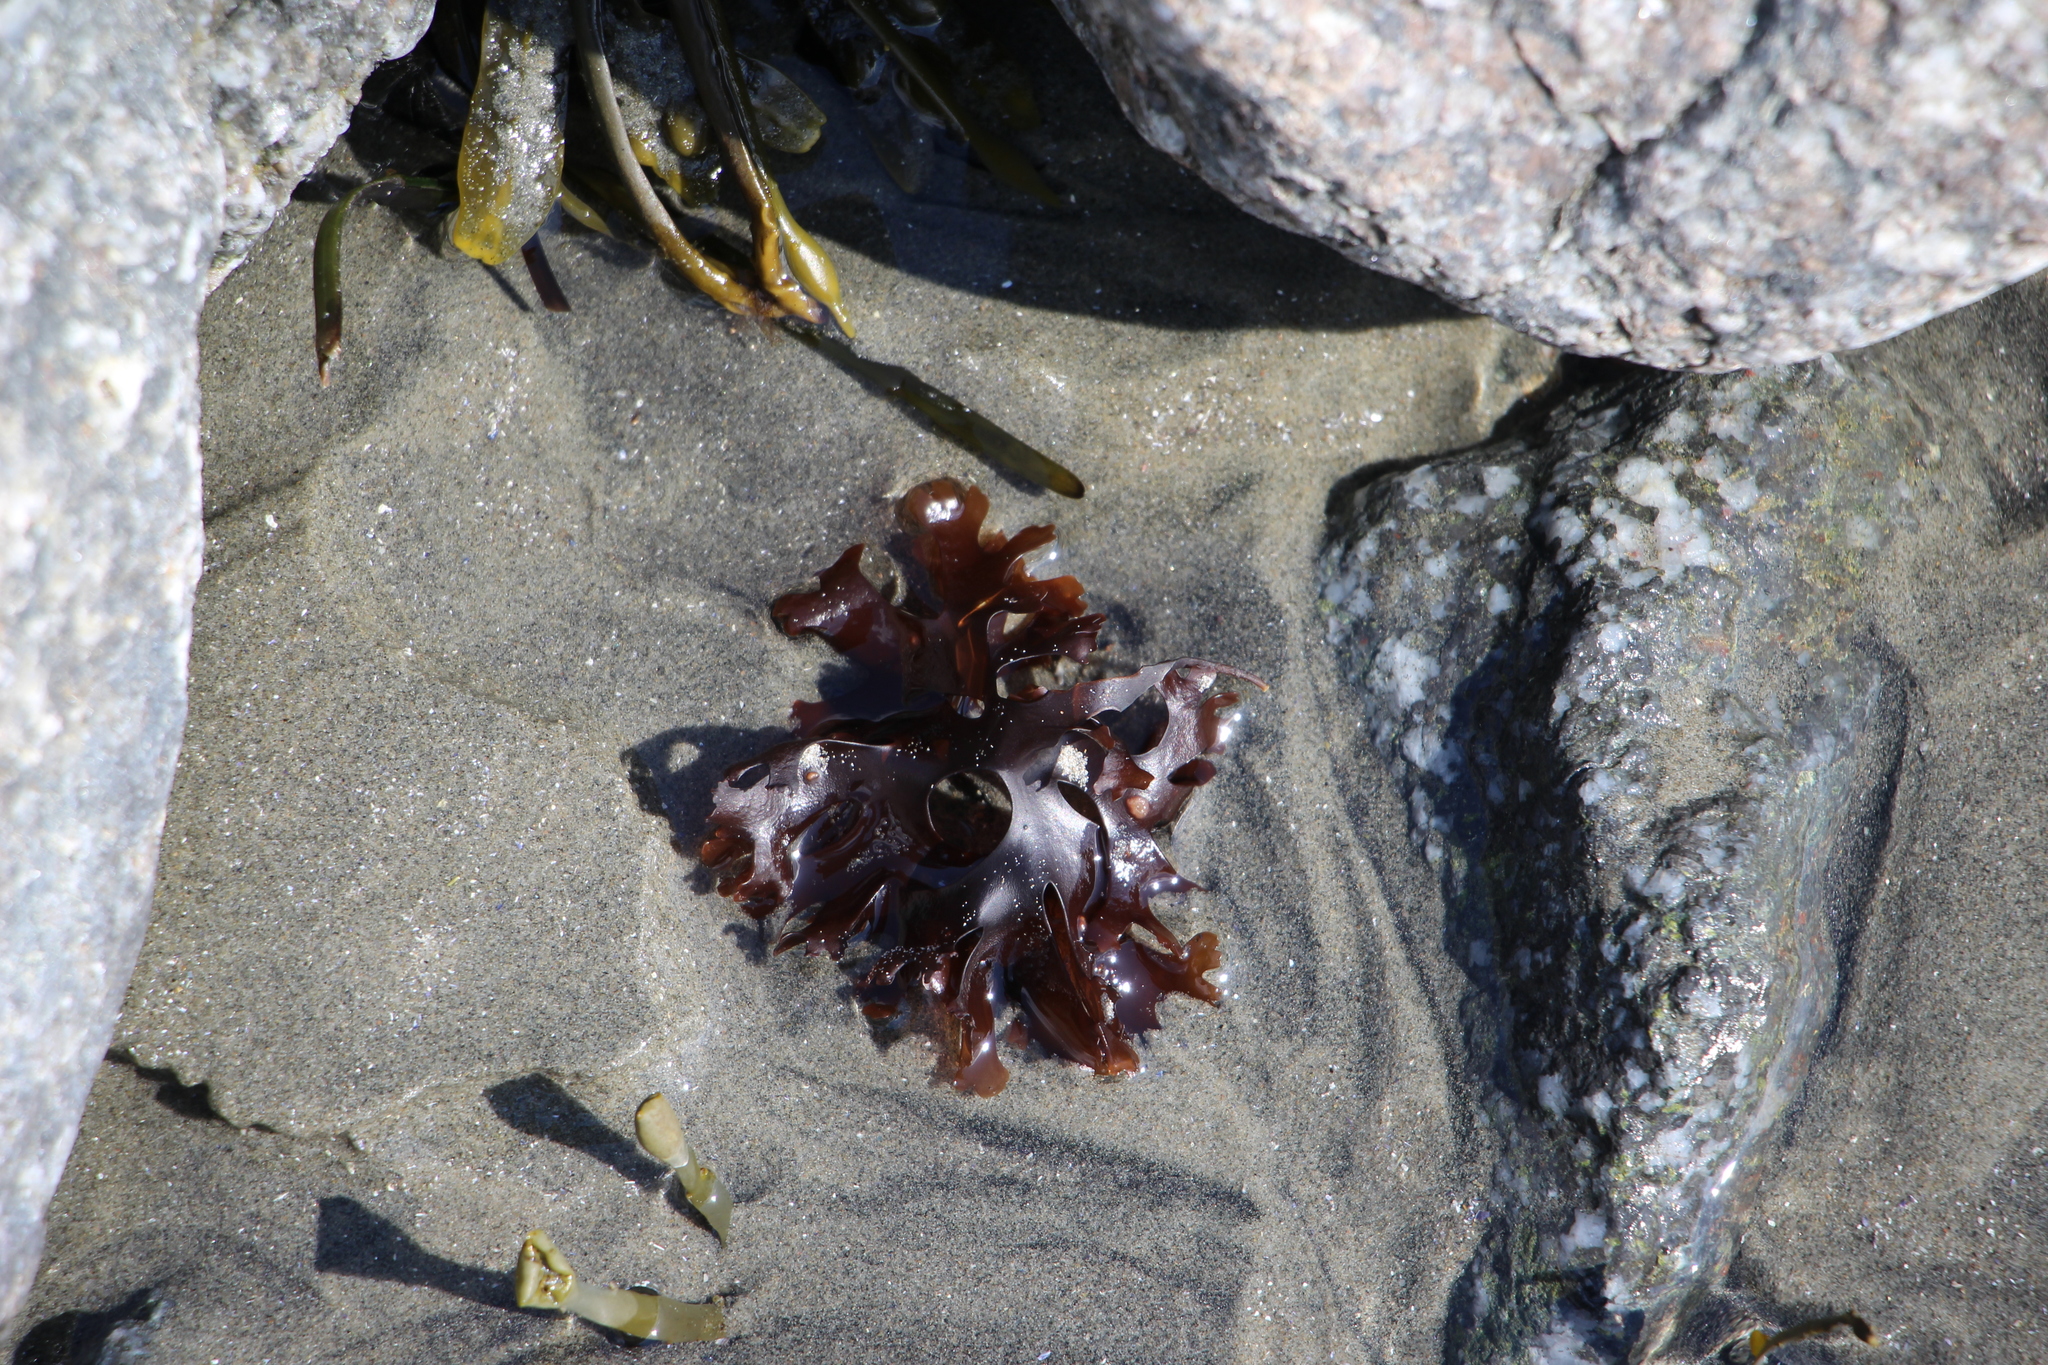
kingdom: Plantae
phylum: Rhodophyta
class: Florideophyceae
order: Gigartinales
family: Gigartinaceae
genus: Chondrus
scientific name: Chondrus crispus
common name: Carrageen
